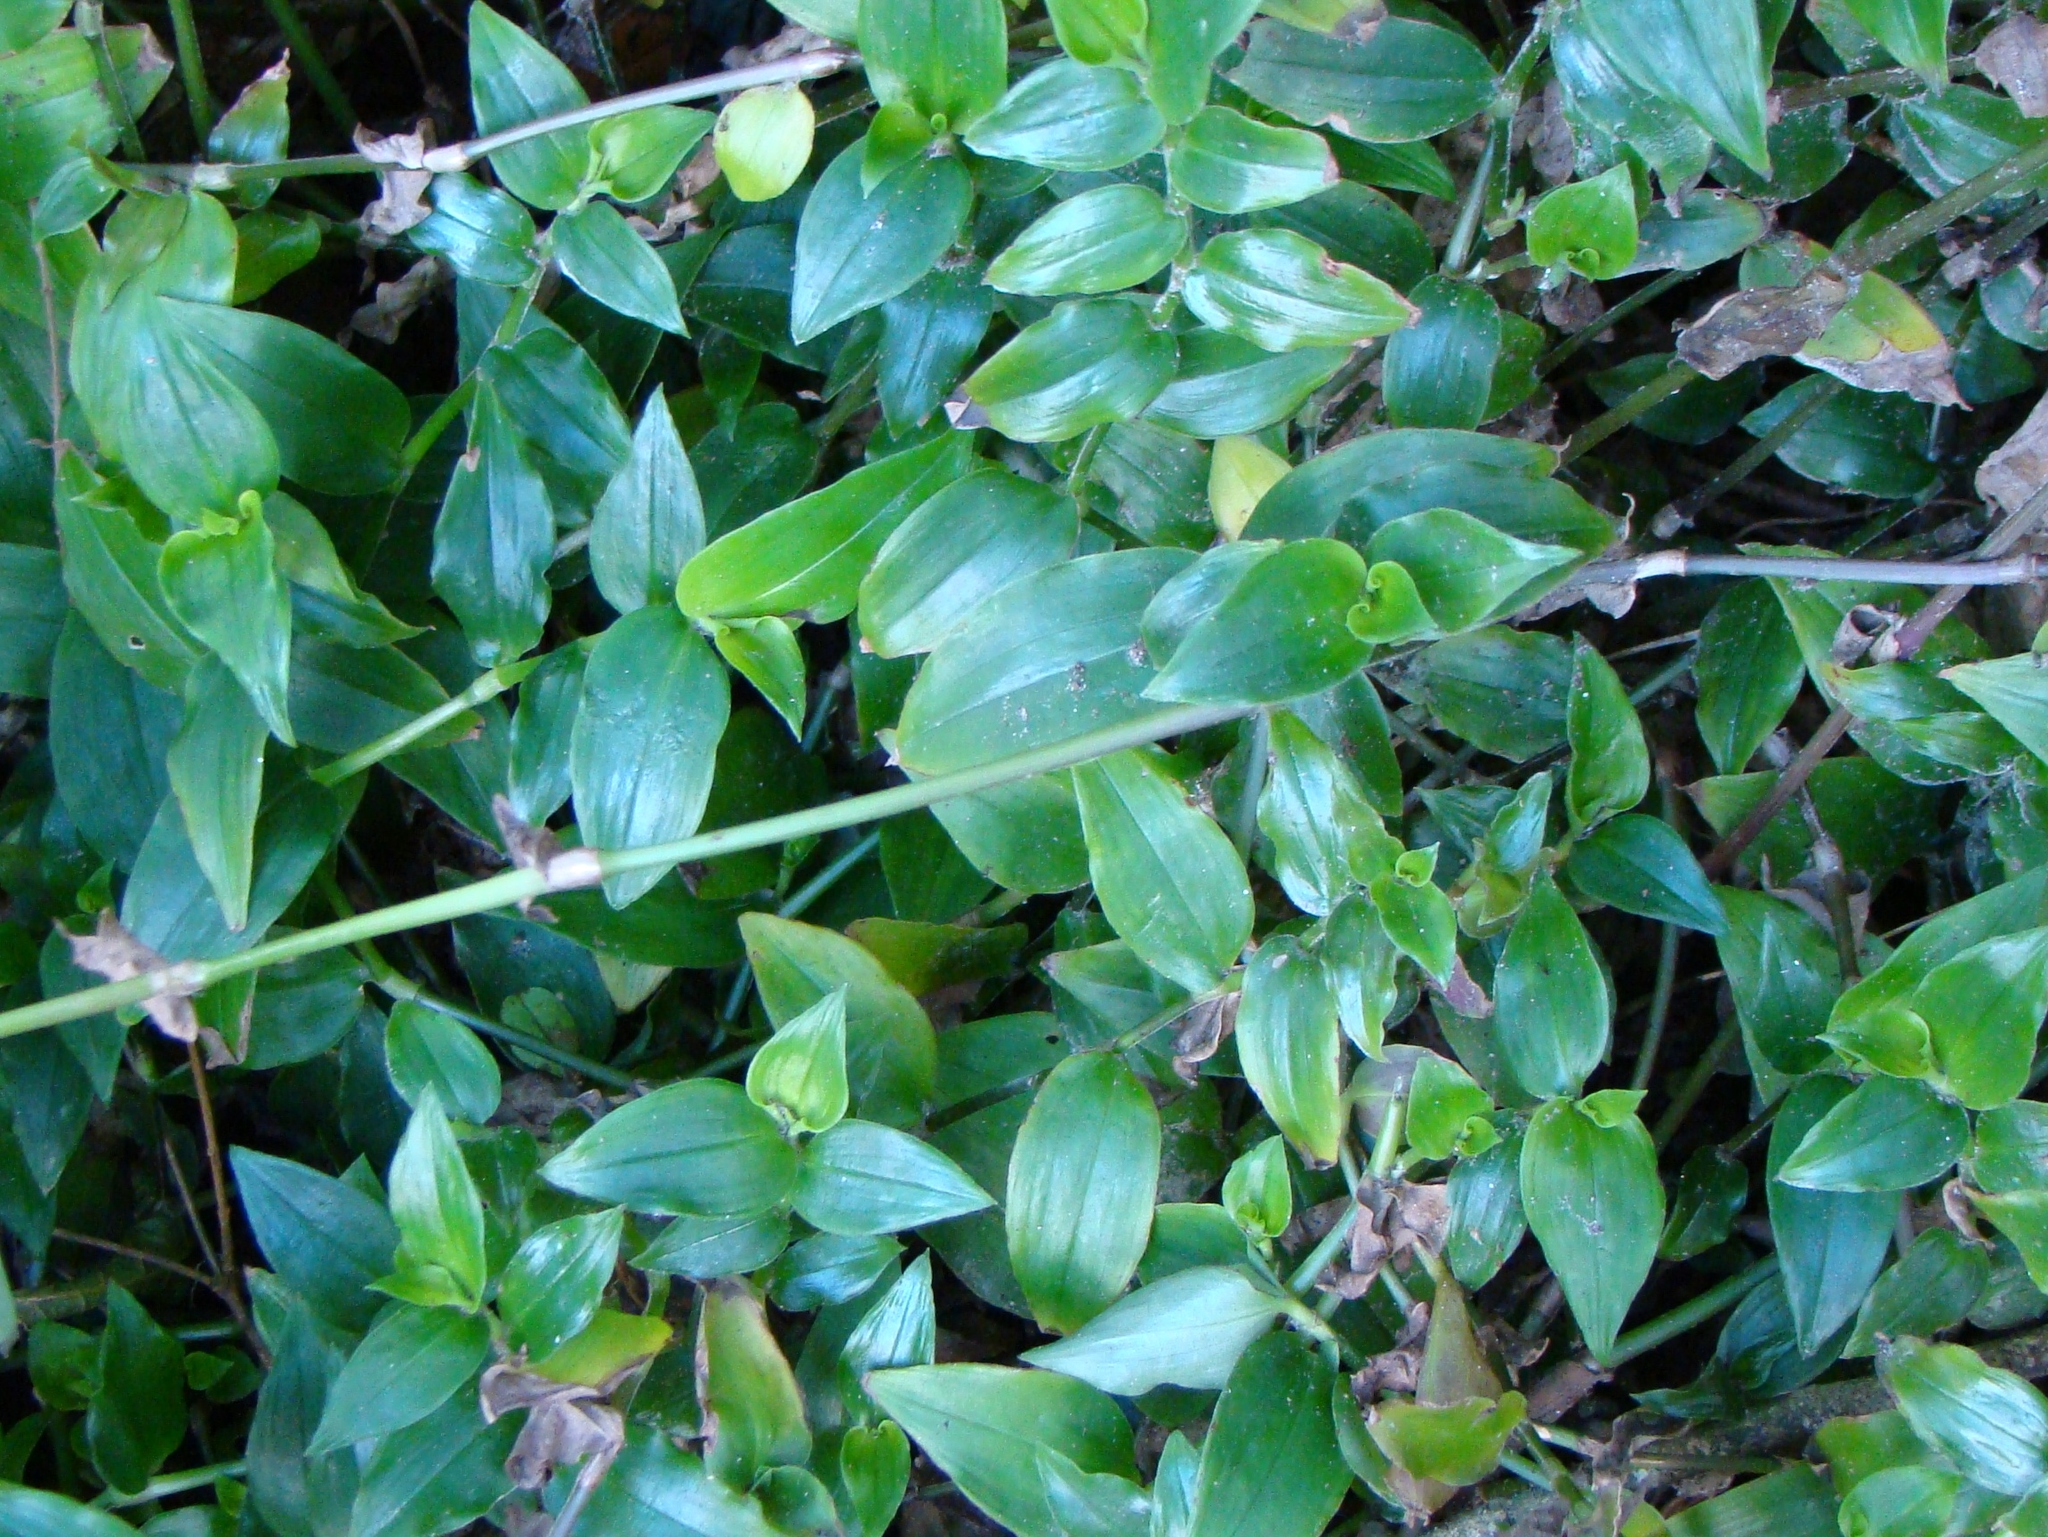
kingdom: Plantae
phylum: Tracheophyta
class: Liliopsida
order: Commelinales
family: Commelinaceae
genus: Tradescantia
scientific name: Tradescantia fluminensis
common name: Wandering-jew
